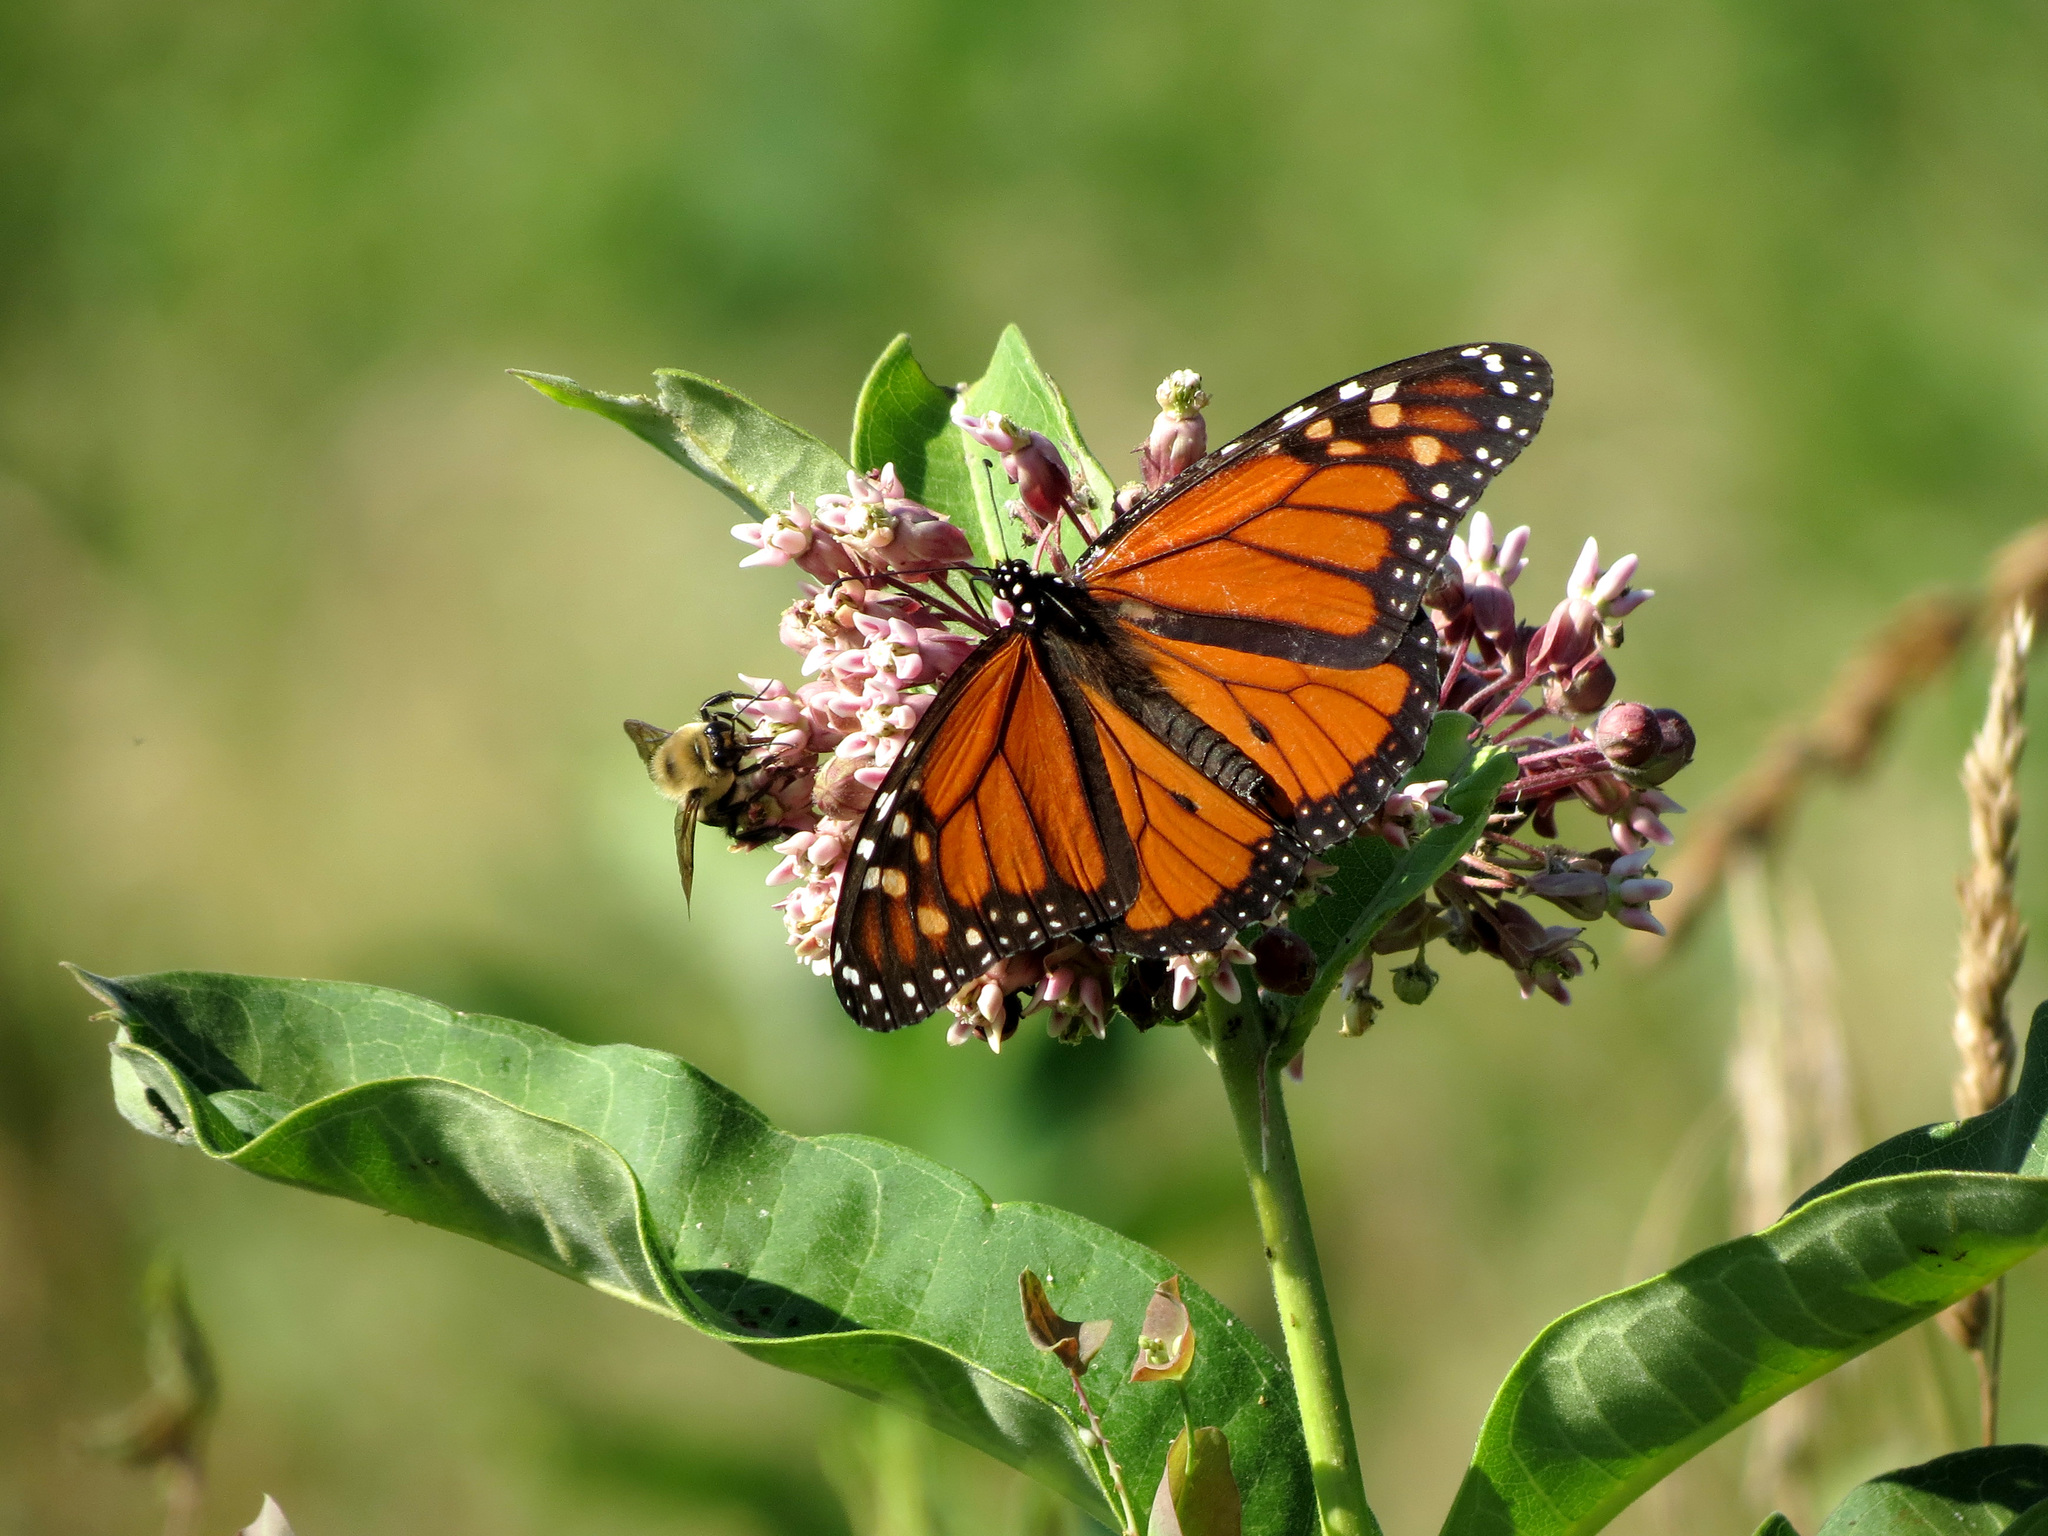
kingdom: Animalia
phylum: Arthropoda
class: Insecta
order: Lepidoptera
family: Nymphalidae
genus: Danaus
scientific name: Danaus plexippus
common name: Monarch
